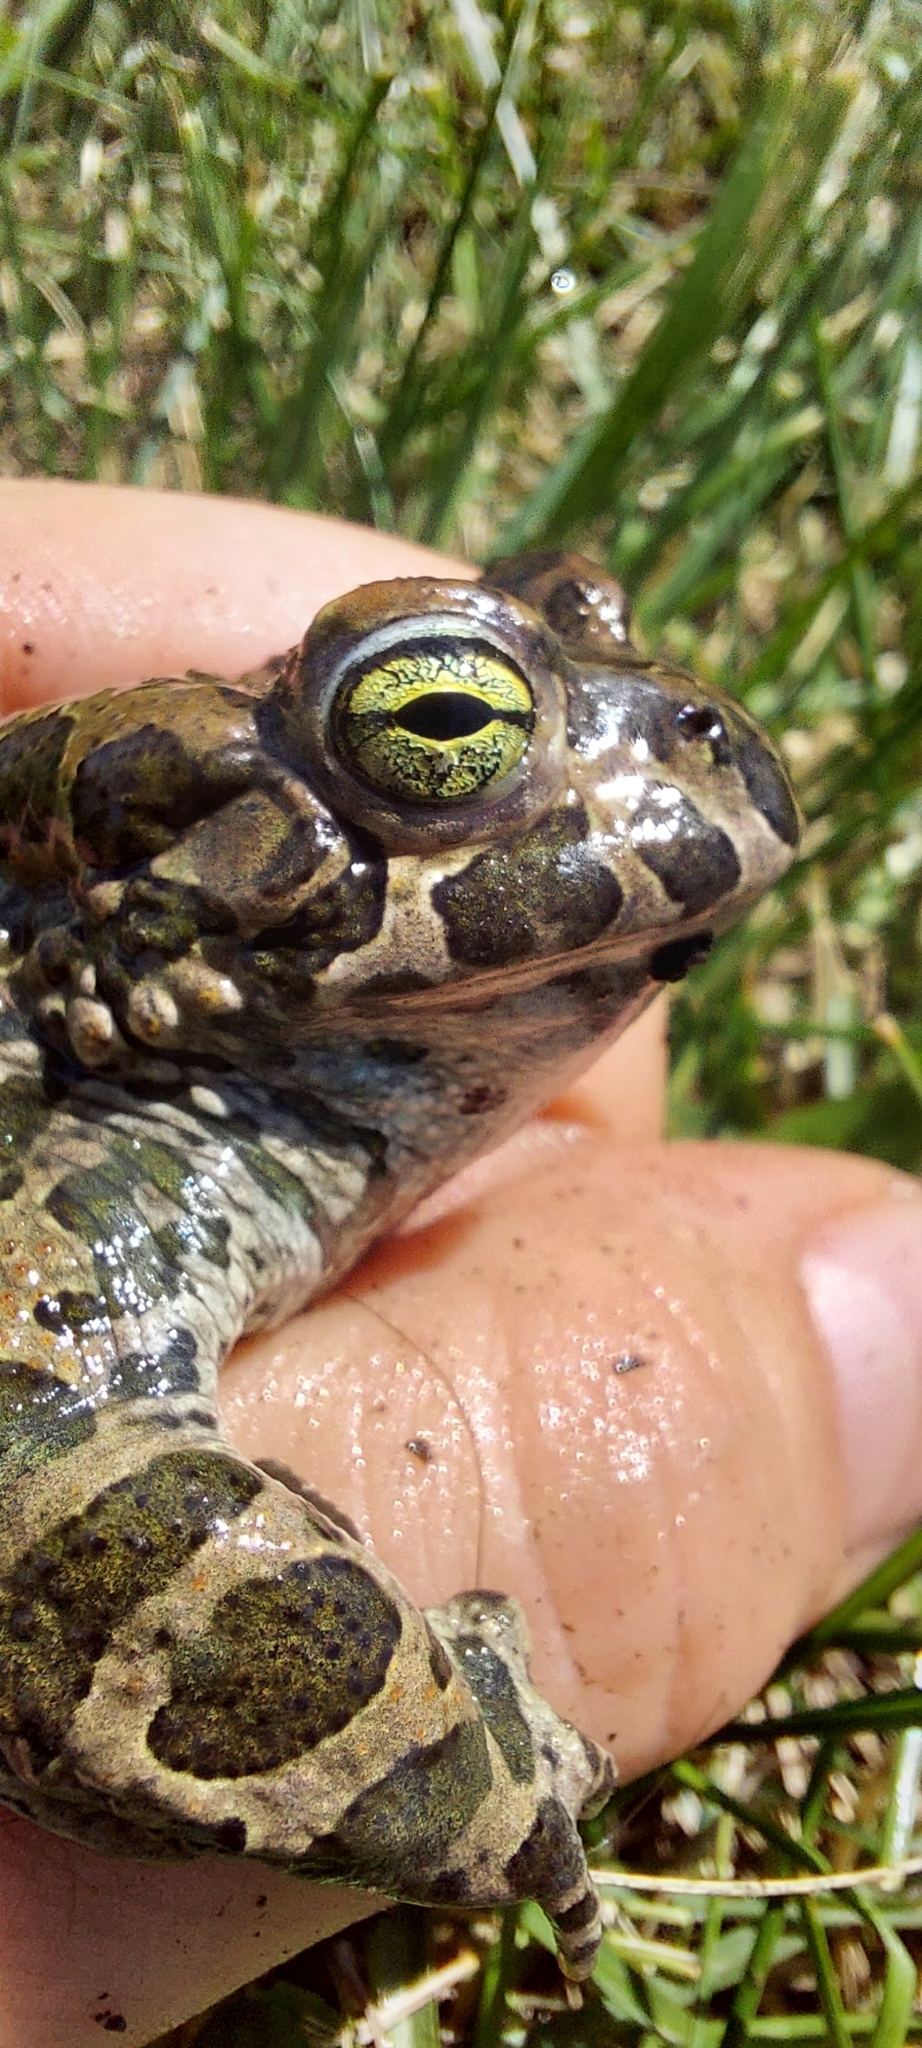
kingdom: Animalia
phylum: Chordata
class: Amphibia
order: Anura
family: Bufonidae
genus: Bufotes
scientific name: Bufotes viridis
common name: European green toad
